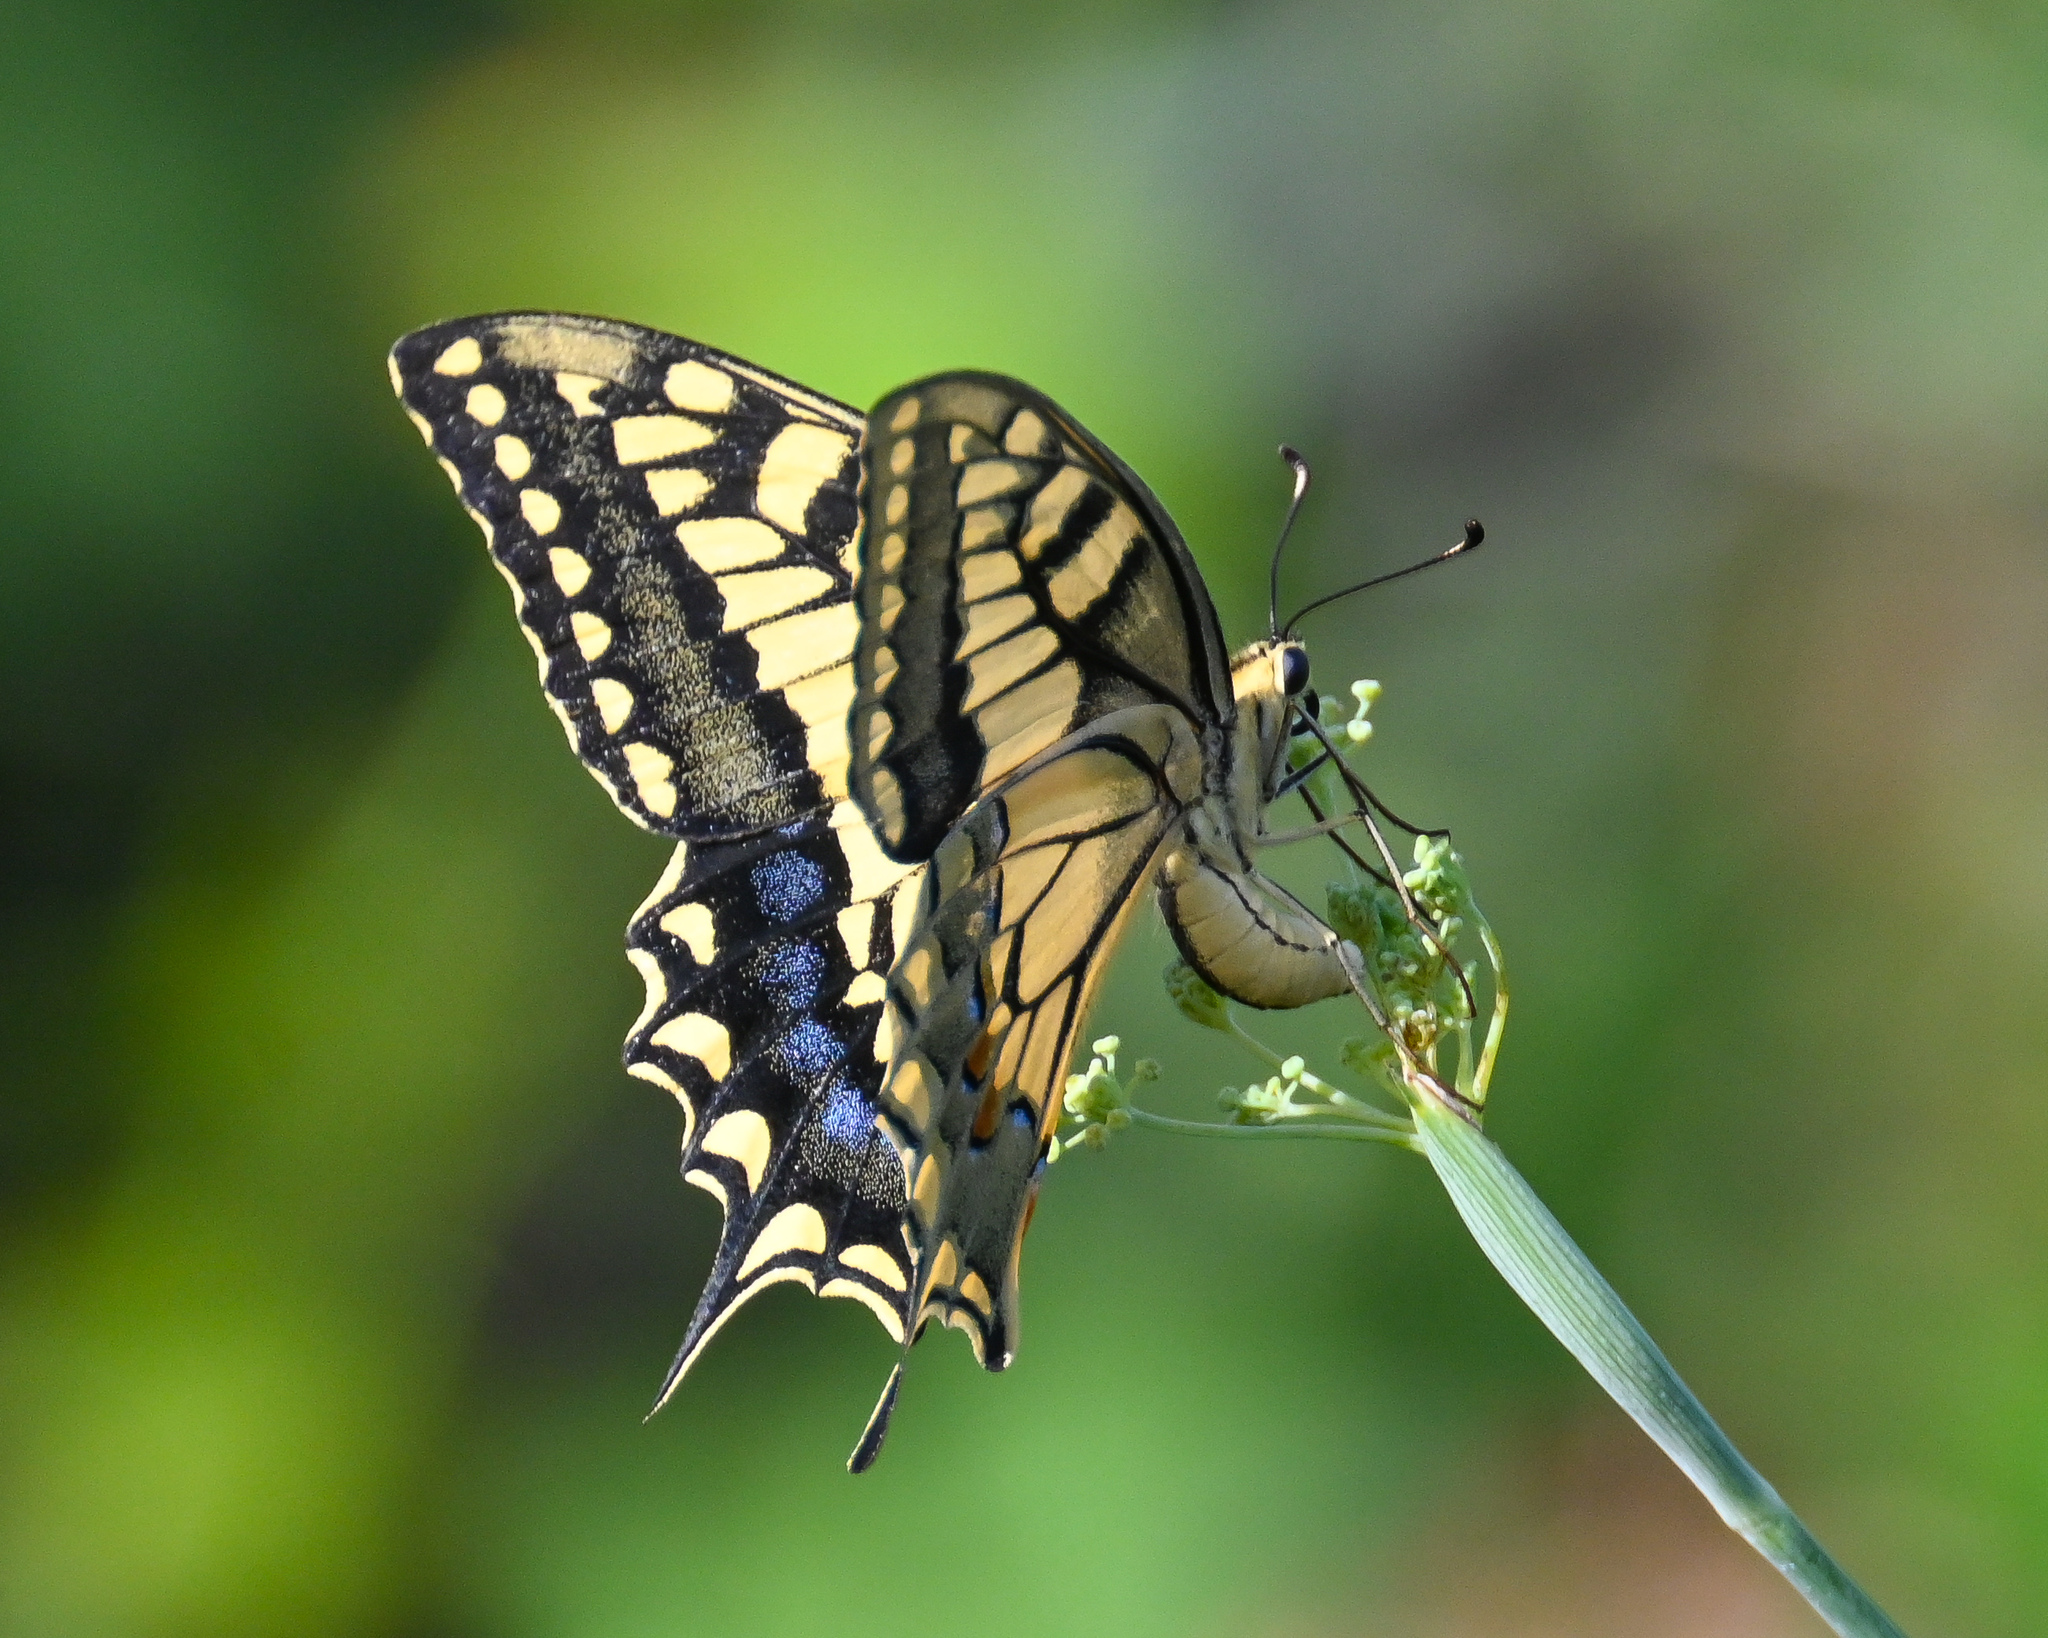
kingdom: Animalia
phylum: Arthropoda
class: Insecta
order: Lepidoptera
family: Papilionidae
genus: Papilio
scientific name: Papilio machaon
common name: Swallowtail
